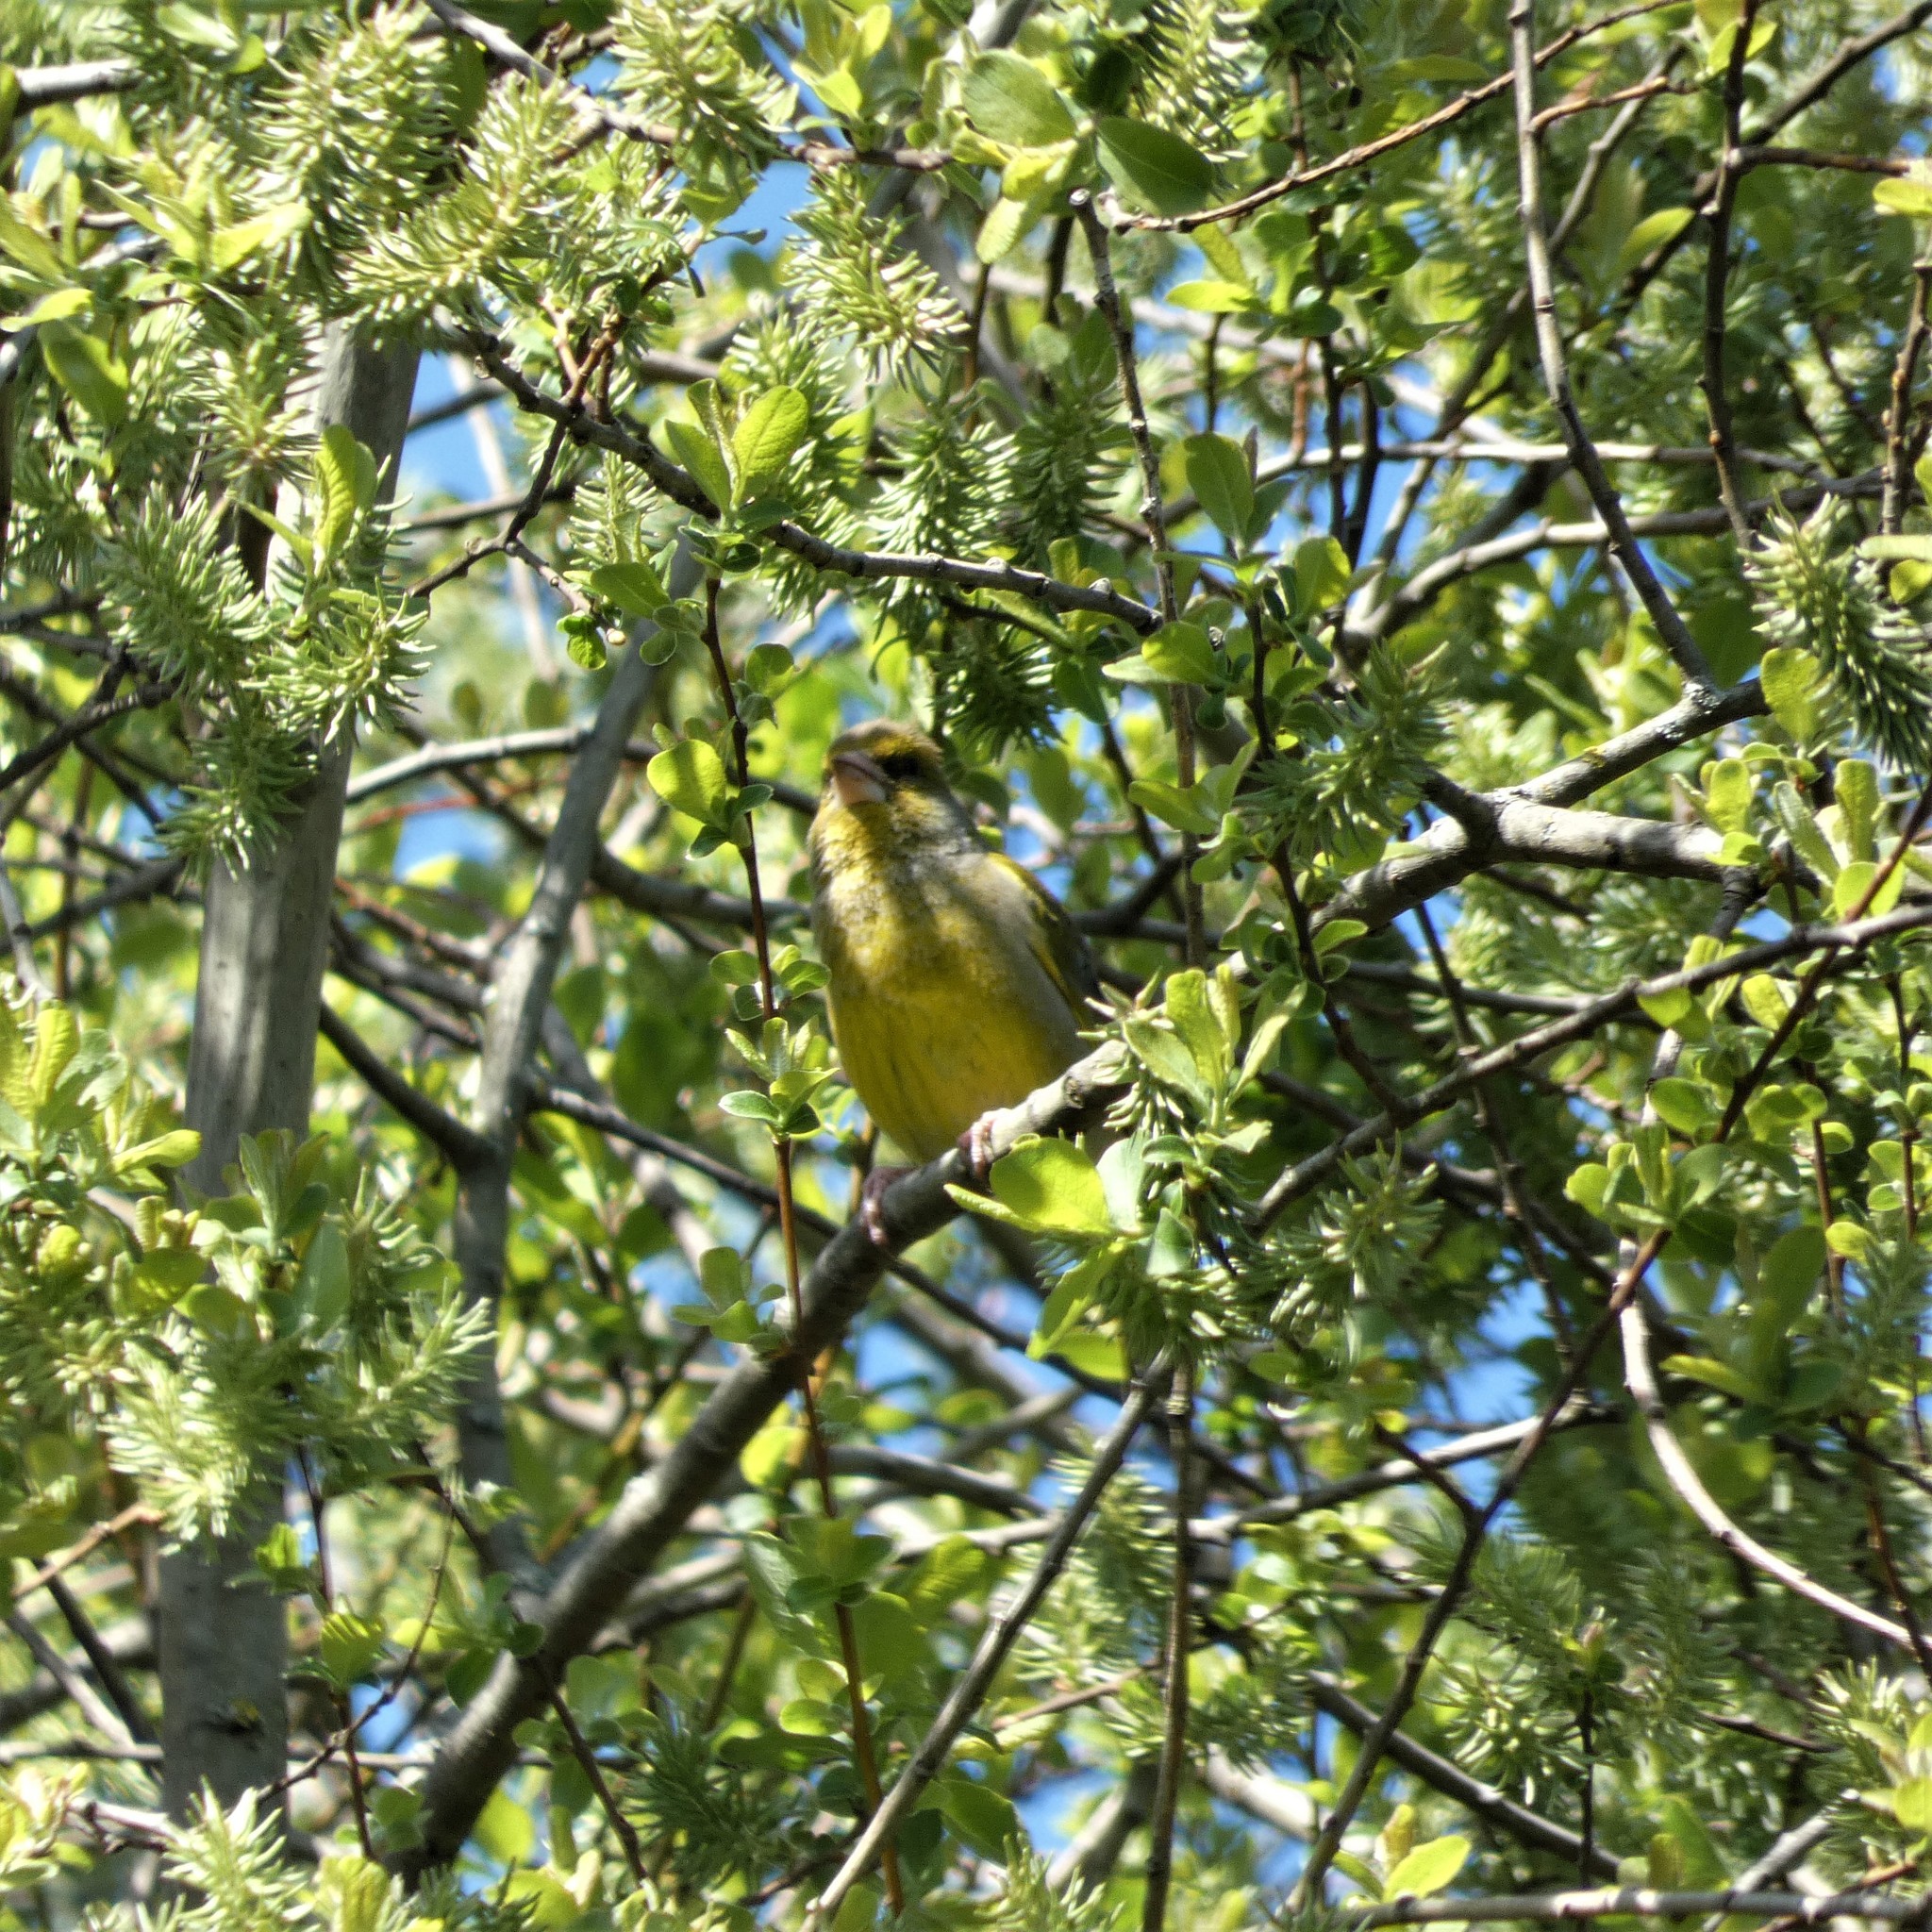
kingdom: Plantae
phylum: Tracheophyta
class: Liliopsida
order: Poales
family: Poaceae
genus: Chloris
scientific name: Chloris chloris
